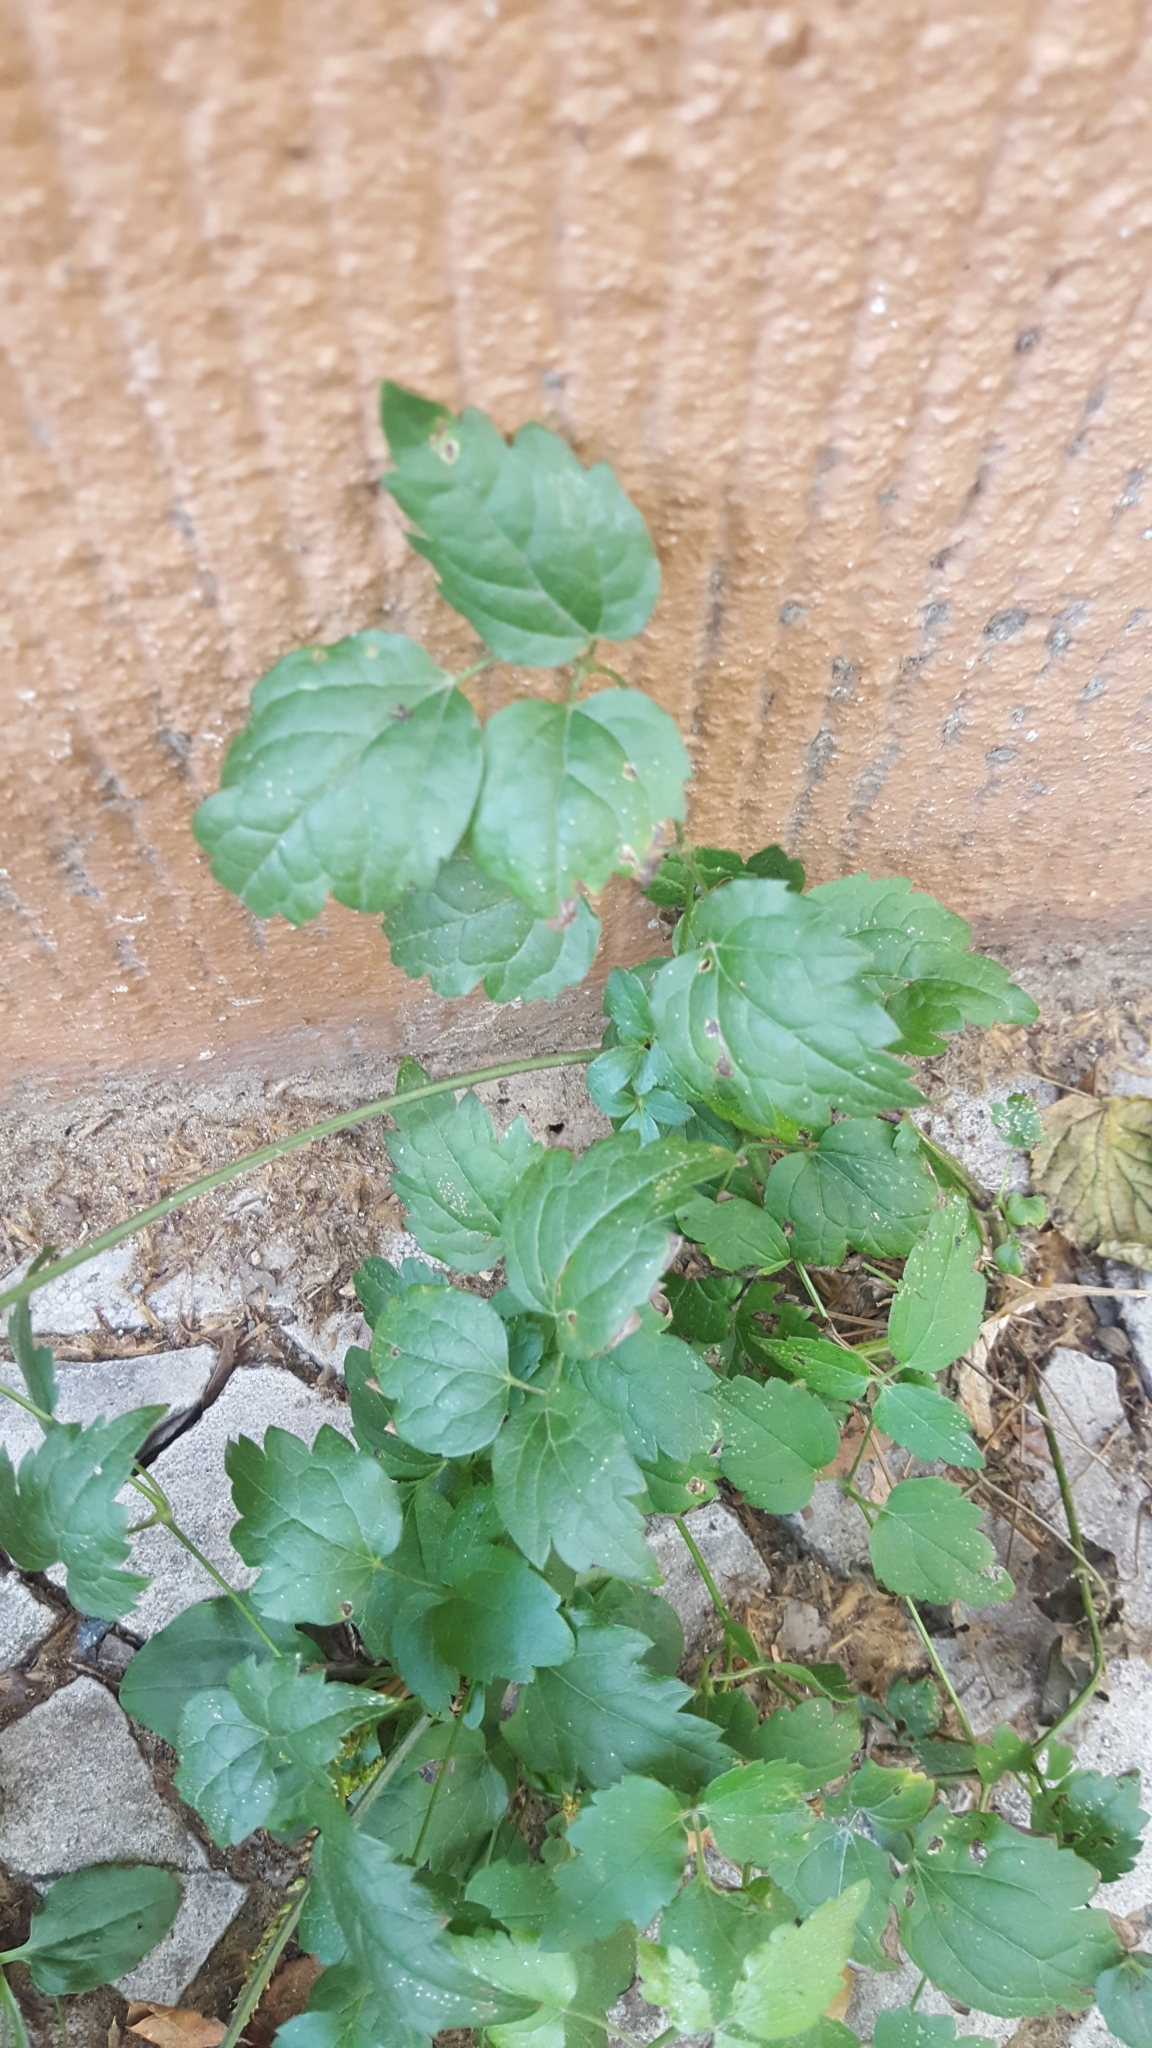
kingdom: Plantae
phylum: Tracheophyta
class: Magnoliopsida
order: Ranunculales
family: Ranunculaceae
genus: Clematis
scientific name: Clematis vitalba
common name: Evergreen clematis
